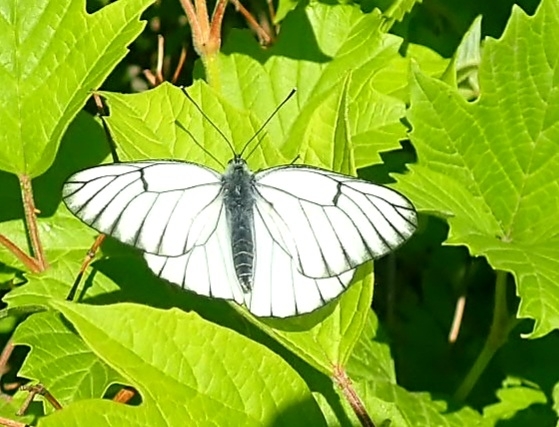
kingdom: Animalia
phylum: Arthropoda
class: Insecta
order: Lepidoptera
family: Pieridae
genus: Aporia
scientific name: Aporia crataegi
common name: Black-veined white
